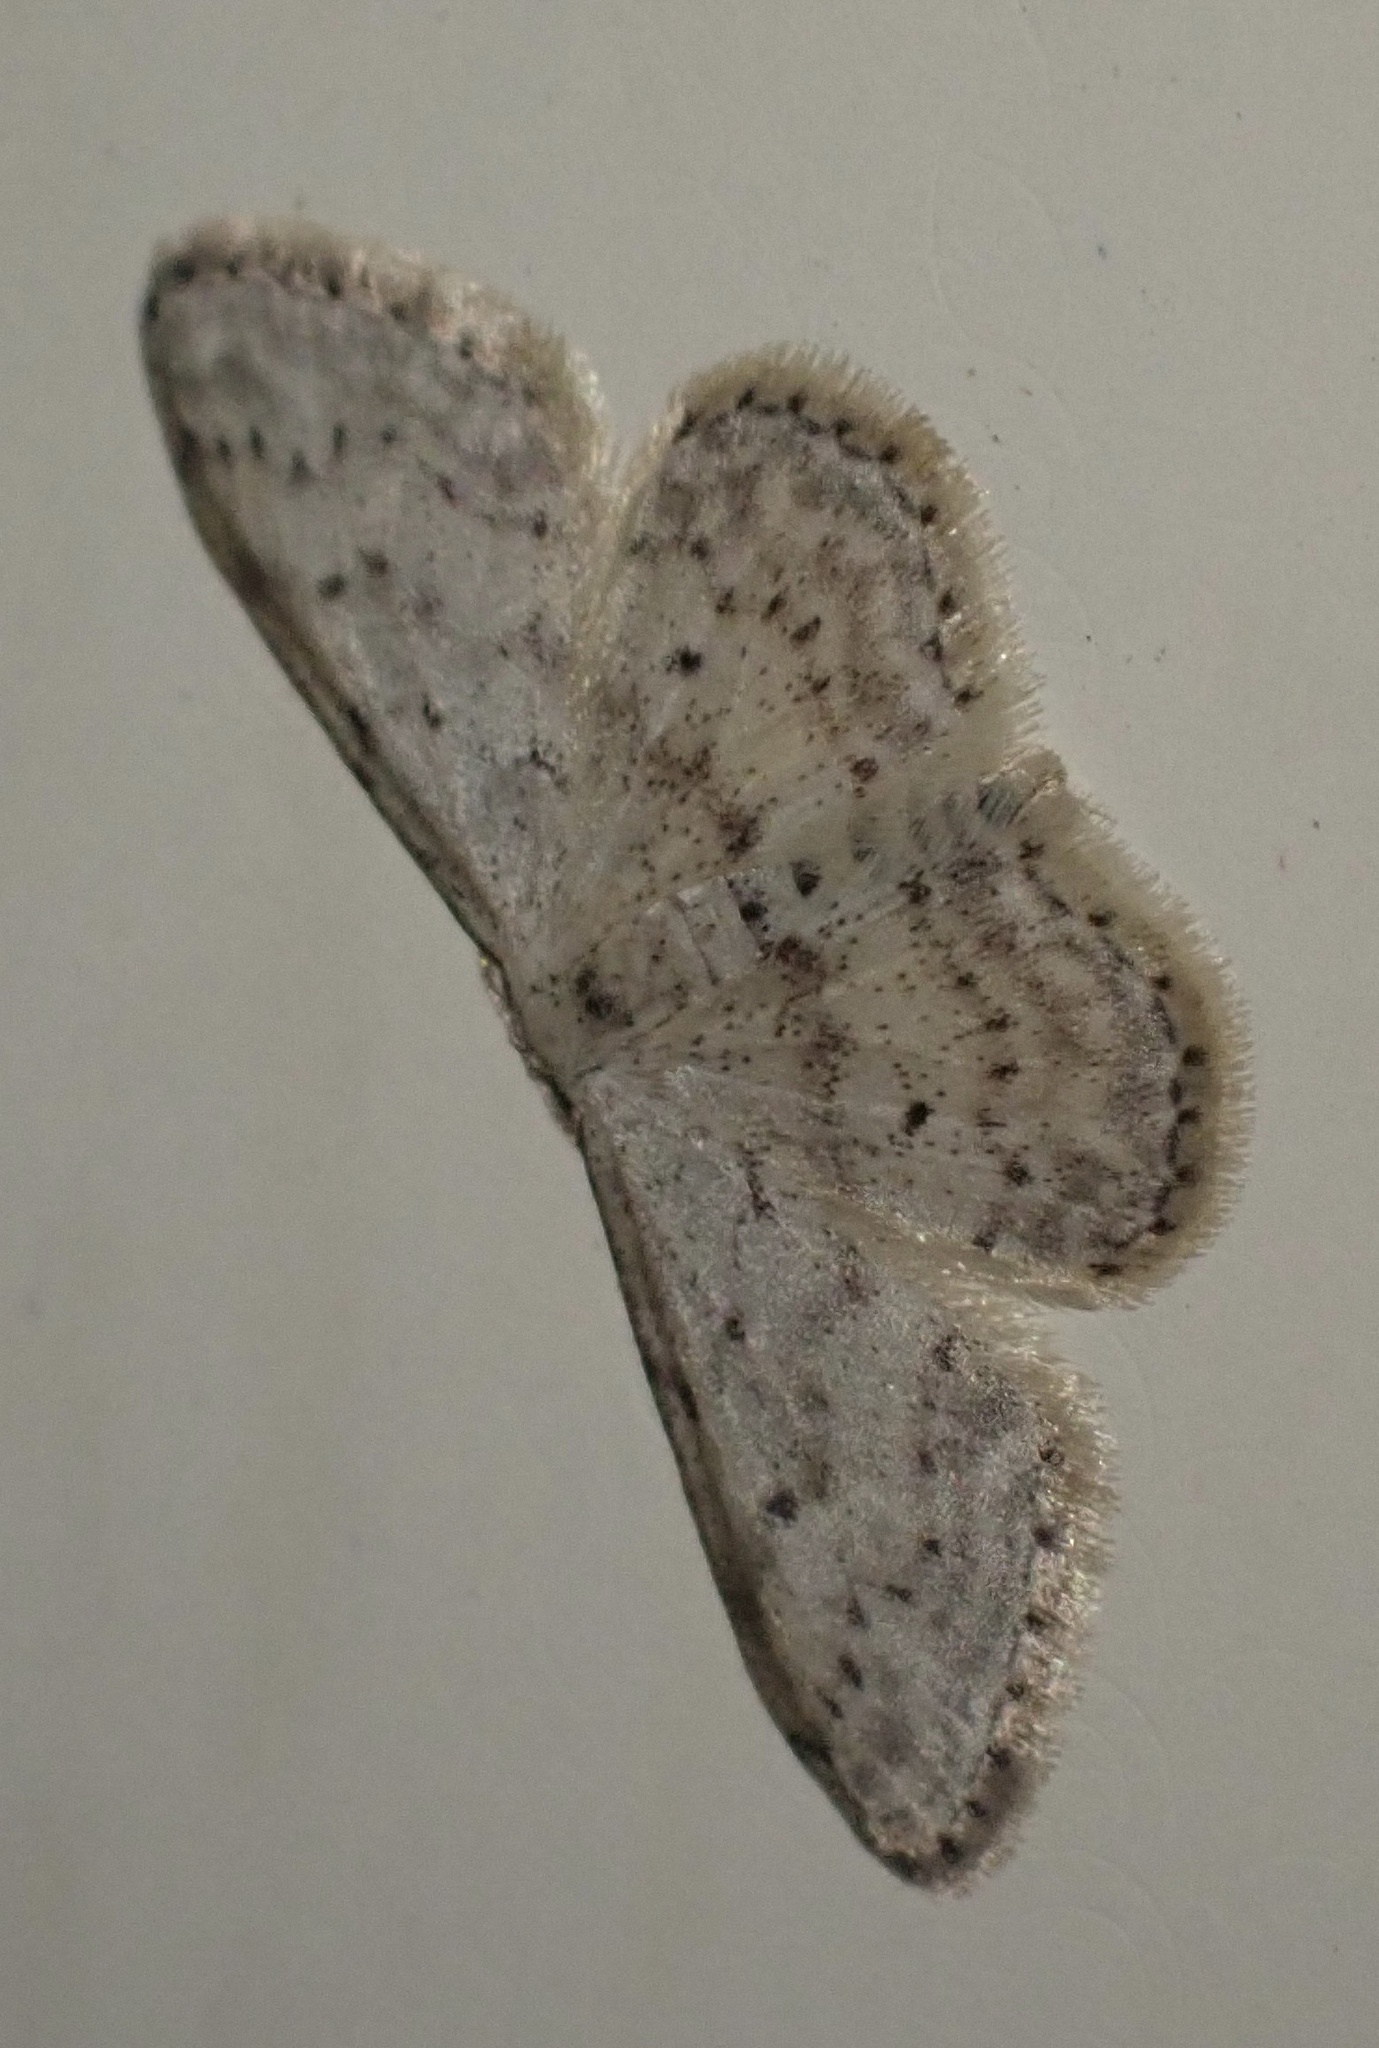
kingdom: Animalia
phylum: Arthropoda
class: Insecta
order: Lepidoptera
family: Geometridae
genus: Idaea
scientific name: Idaea seriata
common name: Small dusty wave
